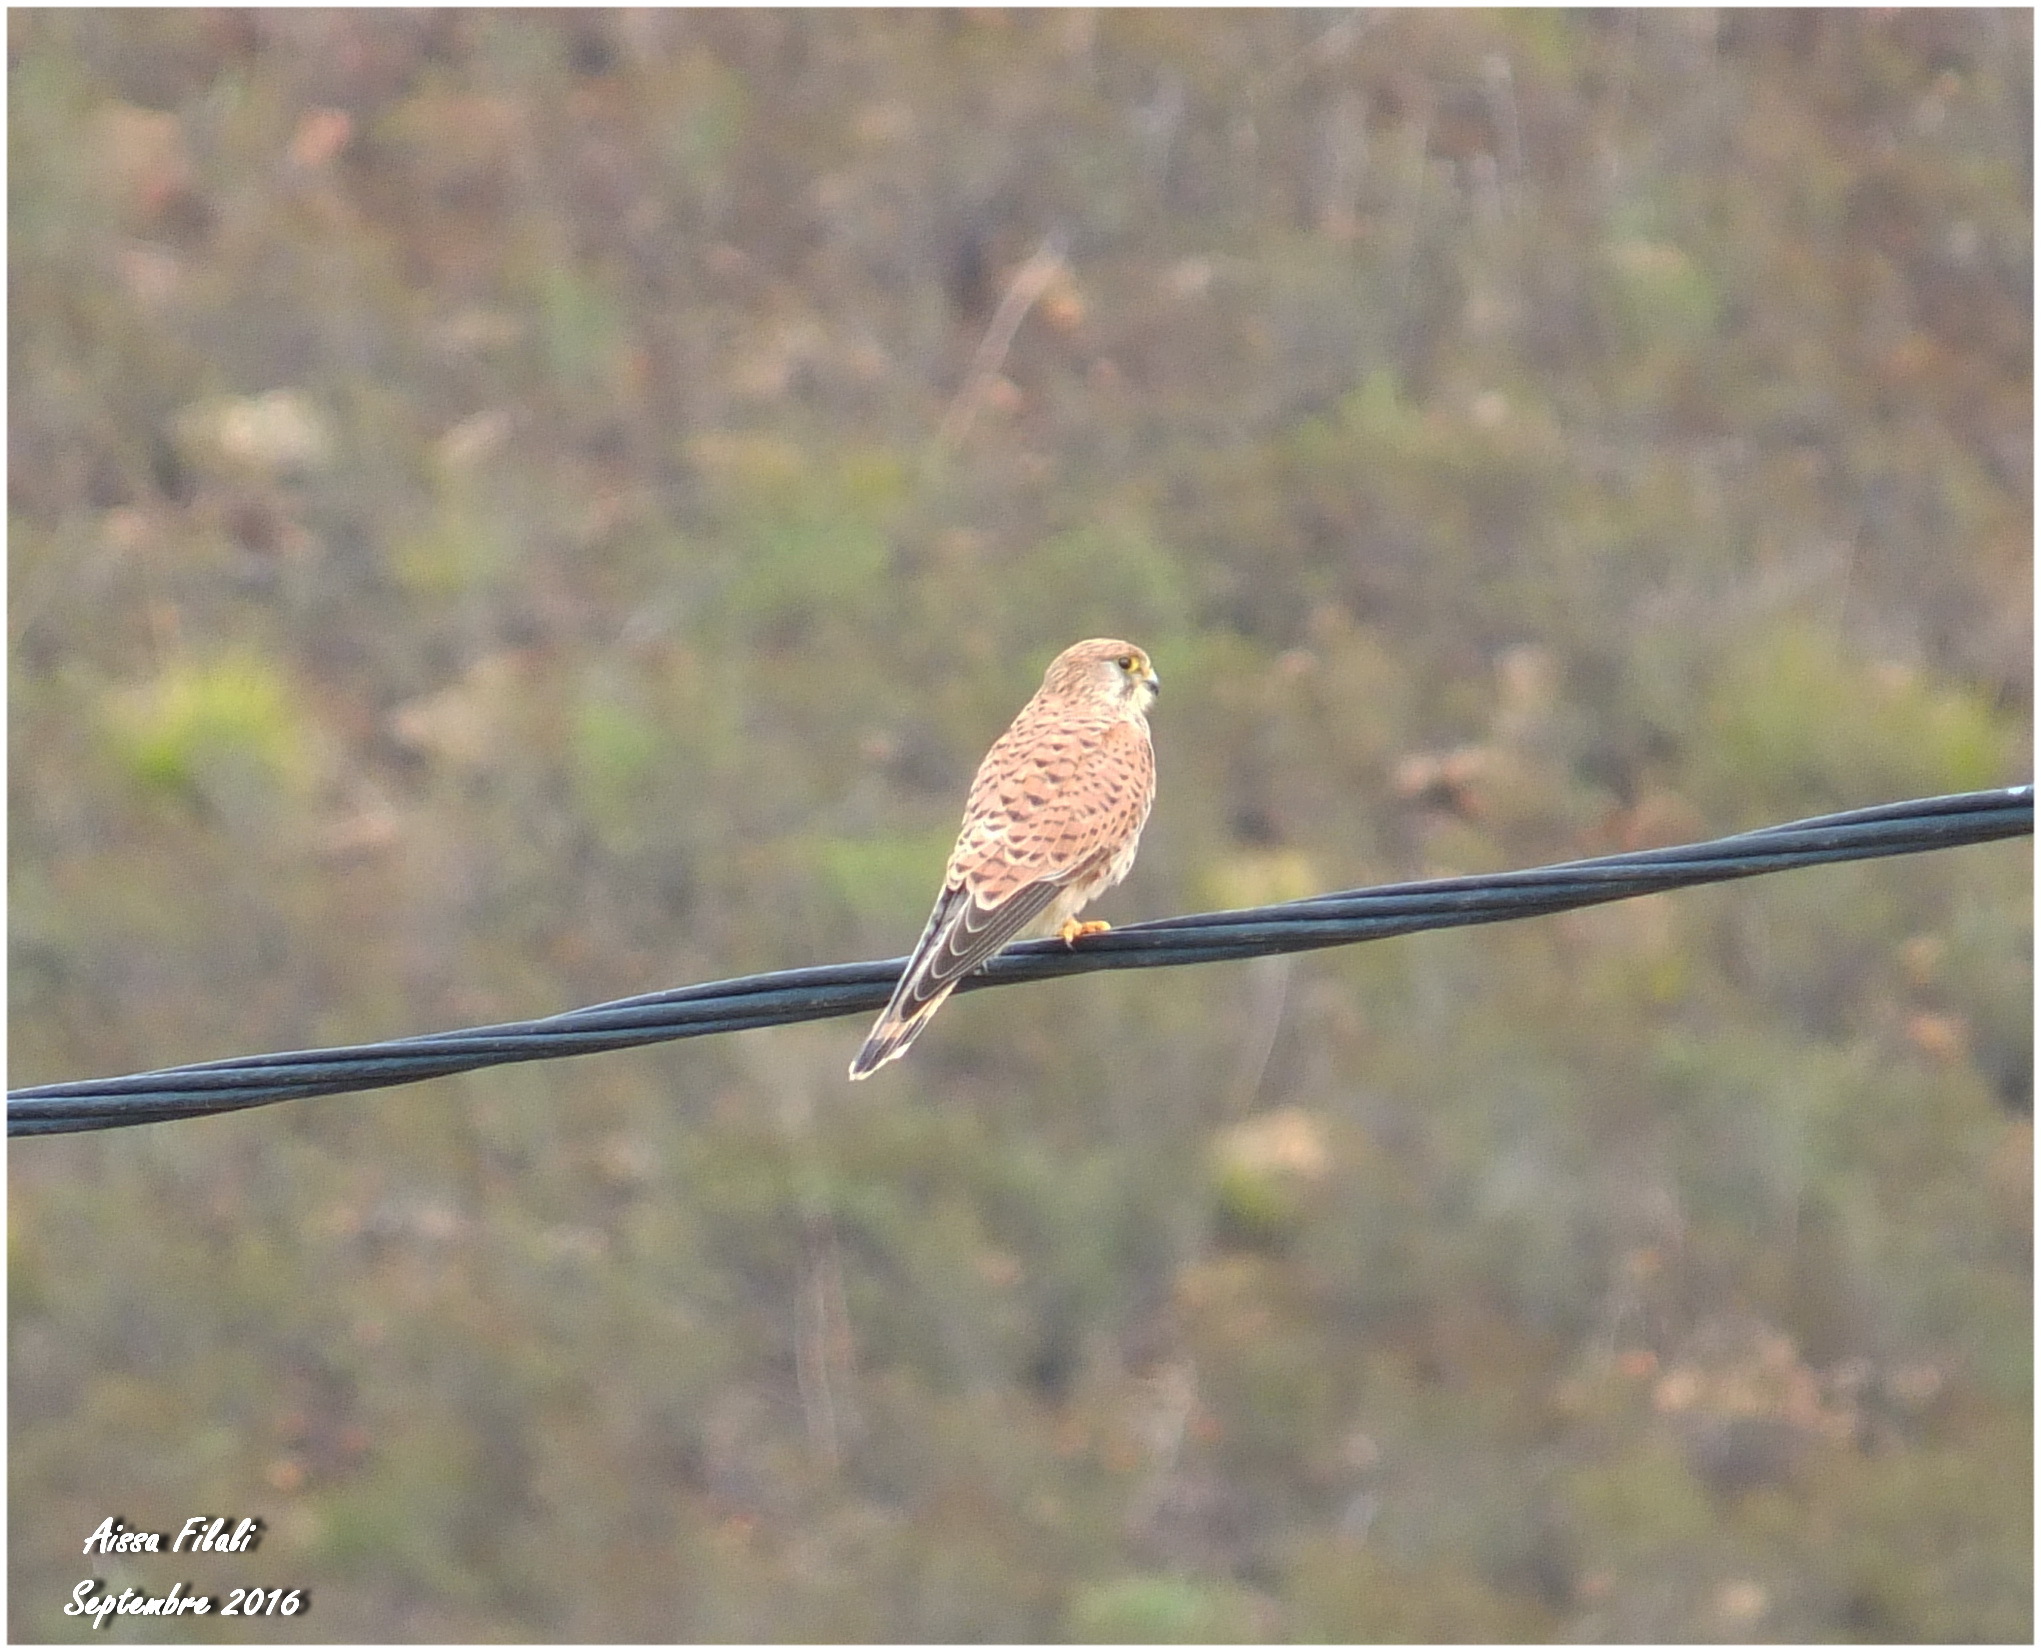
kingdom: Animalia
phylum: Chordata
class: Aves
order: Falconiformes
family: Falconidae
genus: Falco
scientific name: Falco tinnunculus
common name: Common kestrel
